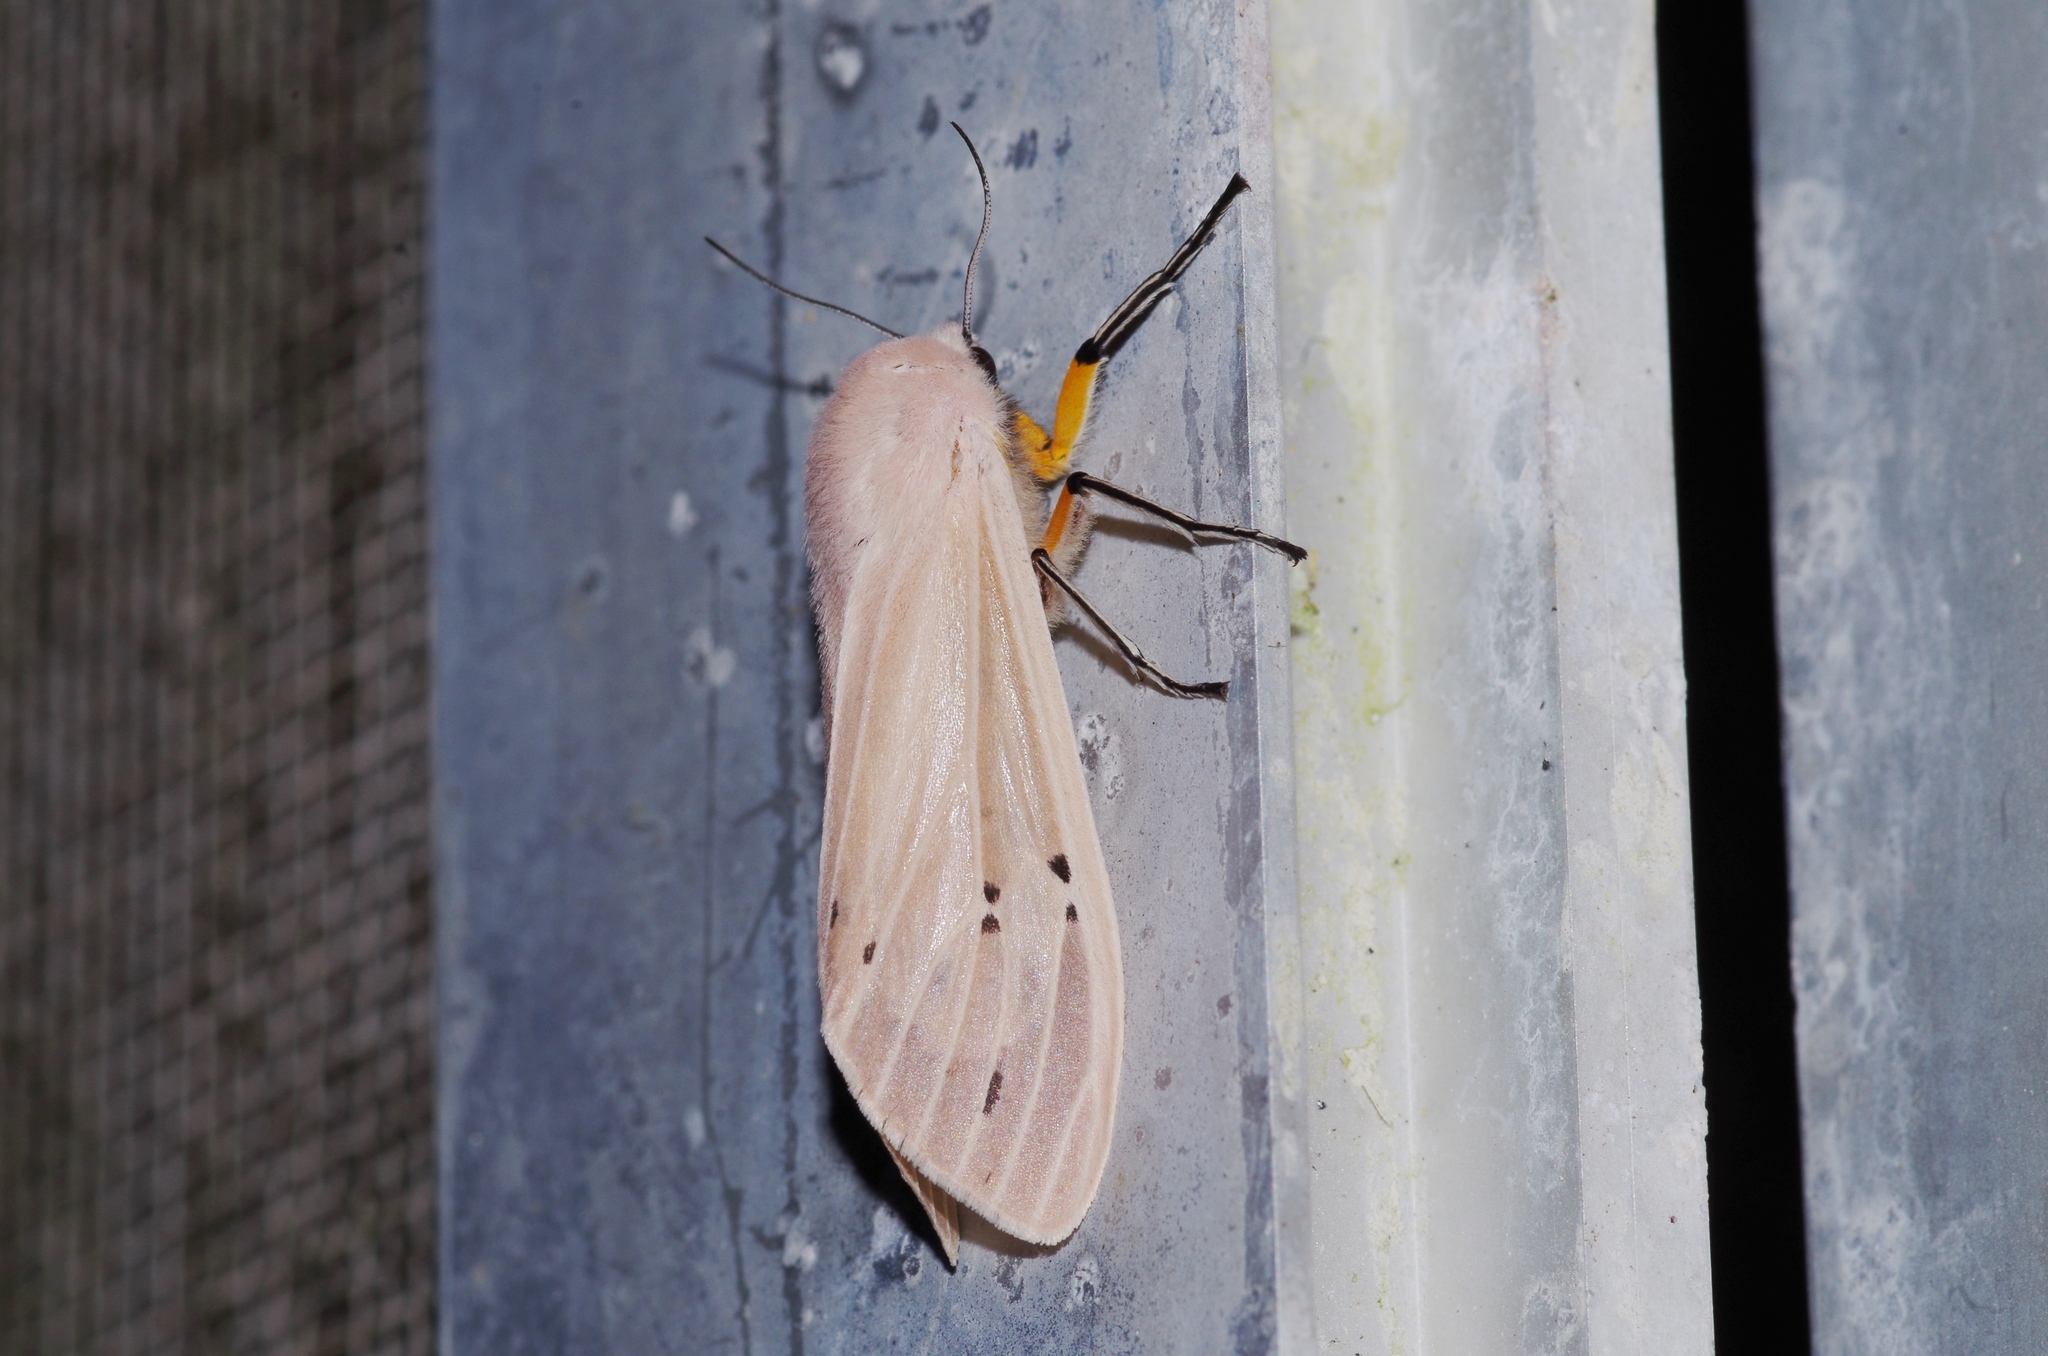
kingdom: Animalia
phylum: Arthropoda
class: Insecta
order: Lepidoptera
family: Erebidae
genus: Creatonotos
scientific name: Creatonotos transiens
